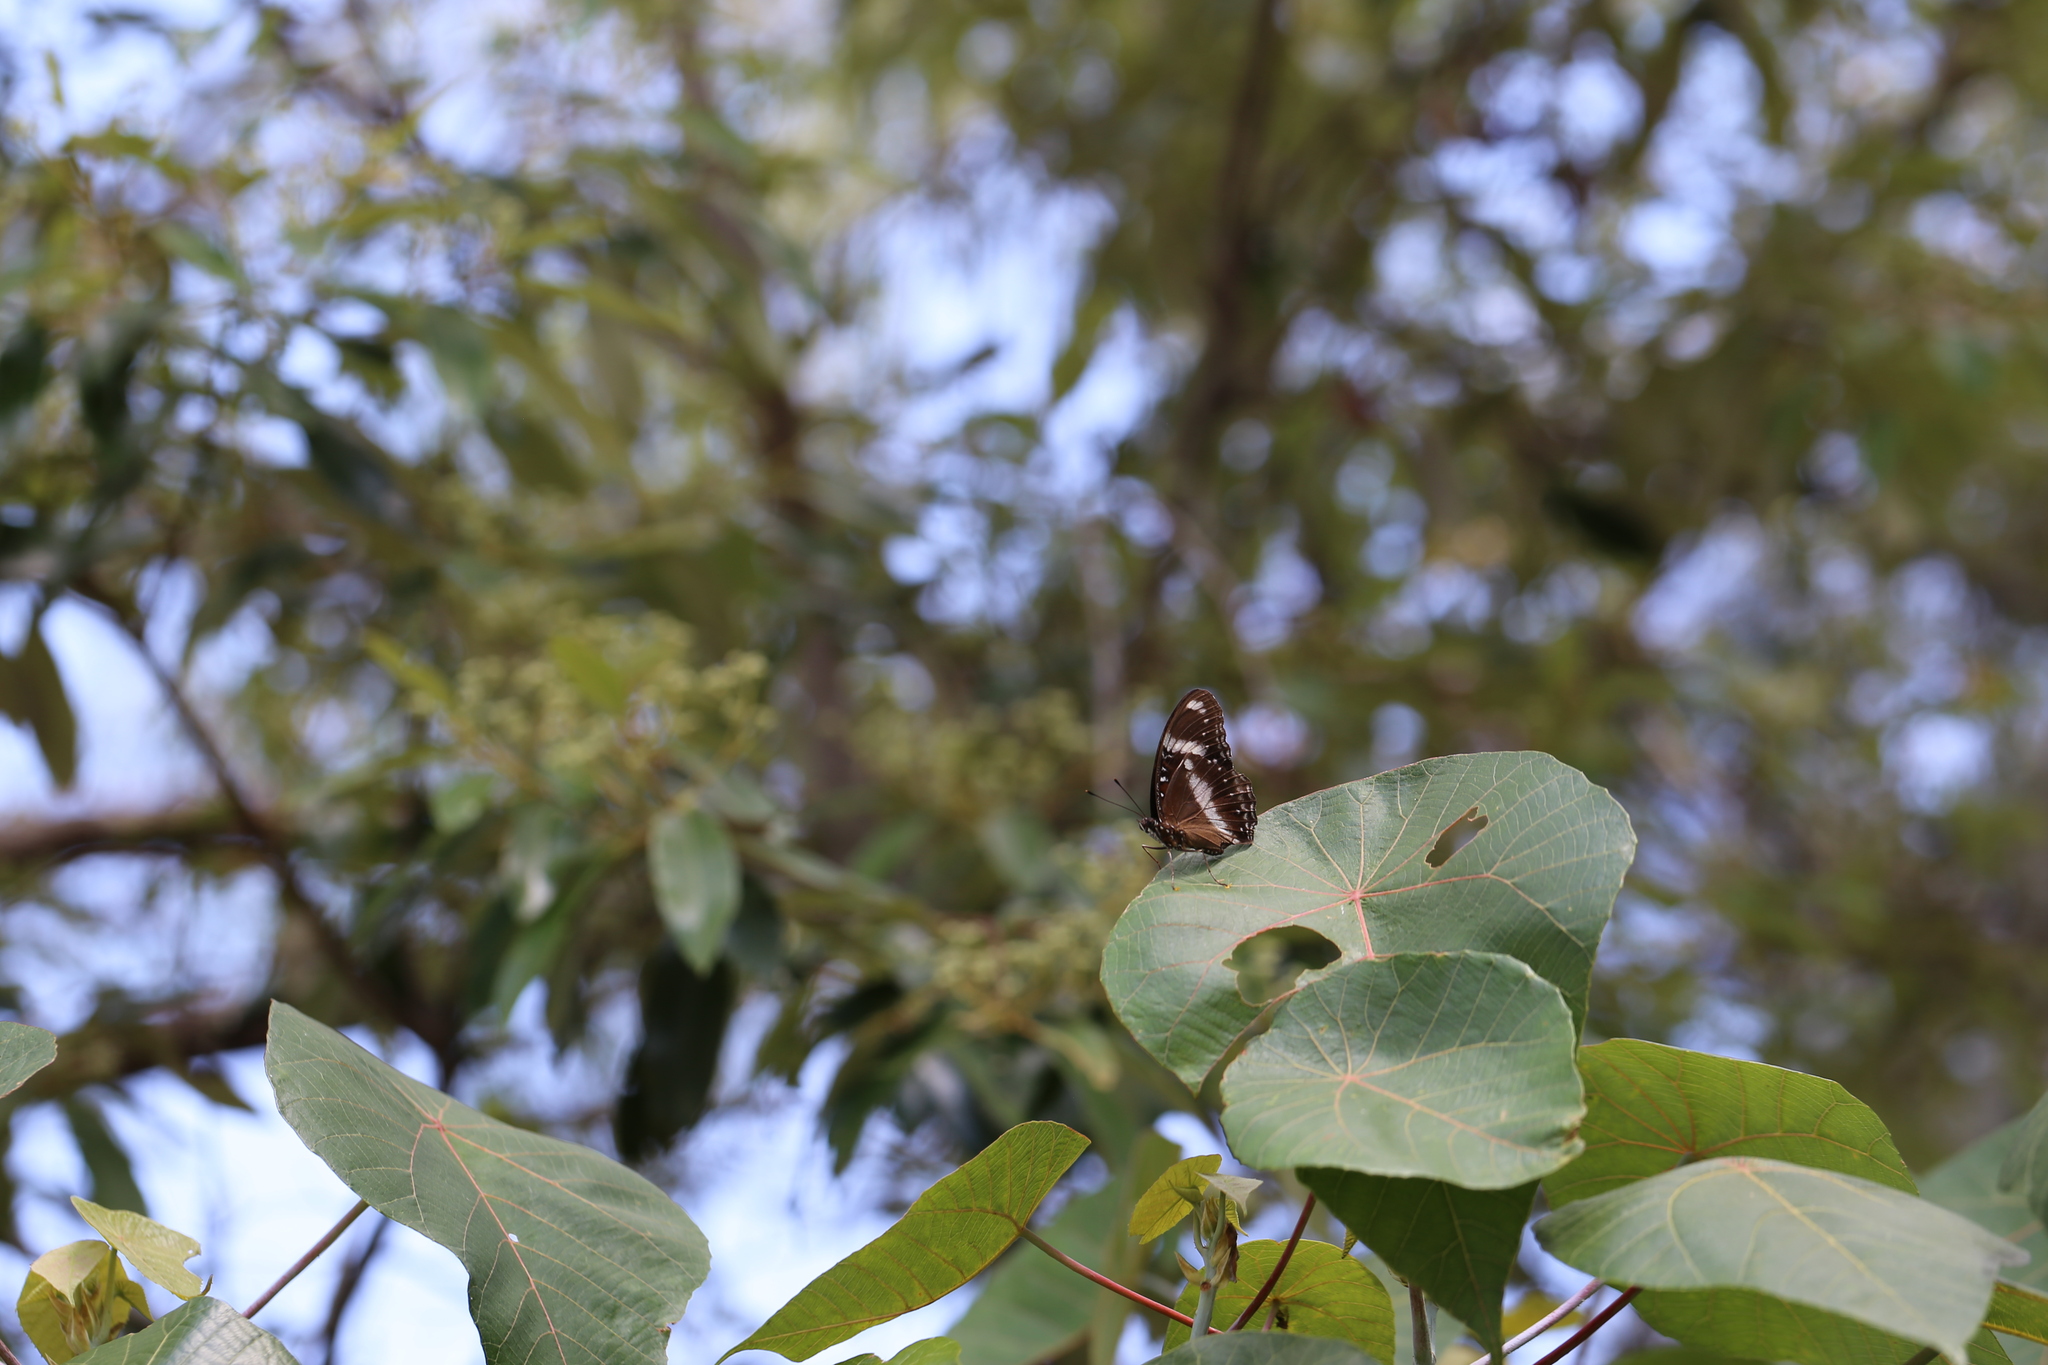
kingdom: Animalia
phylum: Arthropoda
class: Insecta
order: Lepidoptera
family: Nymphalidae
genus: Hypolimnas
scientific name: Hypolimnas bolina
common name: Great eggfly
